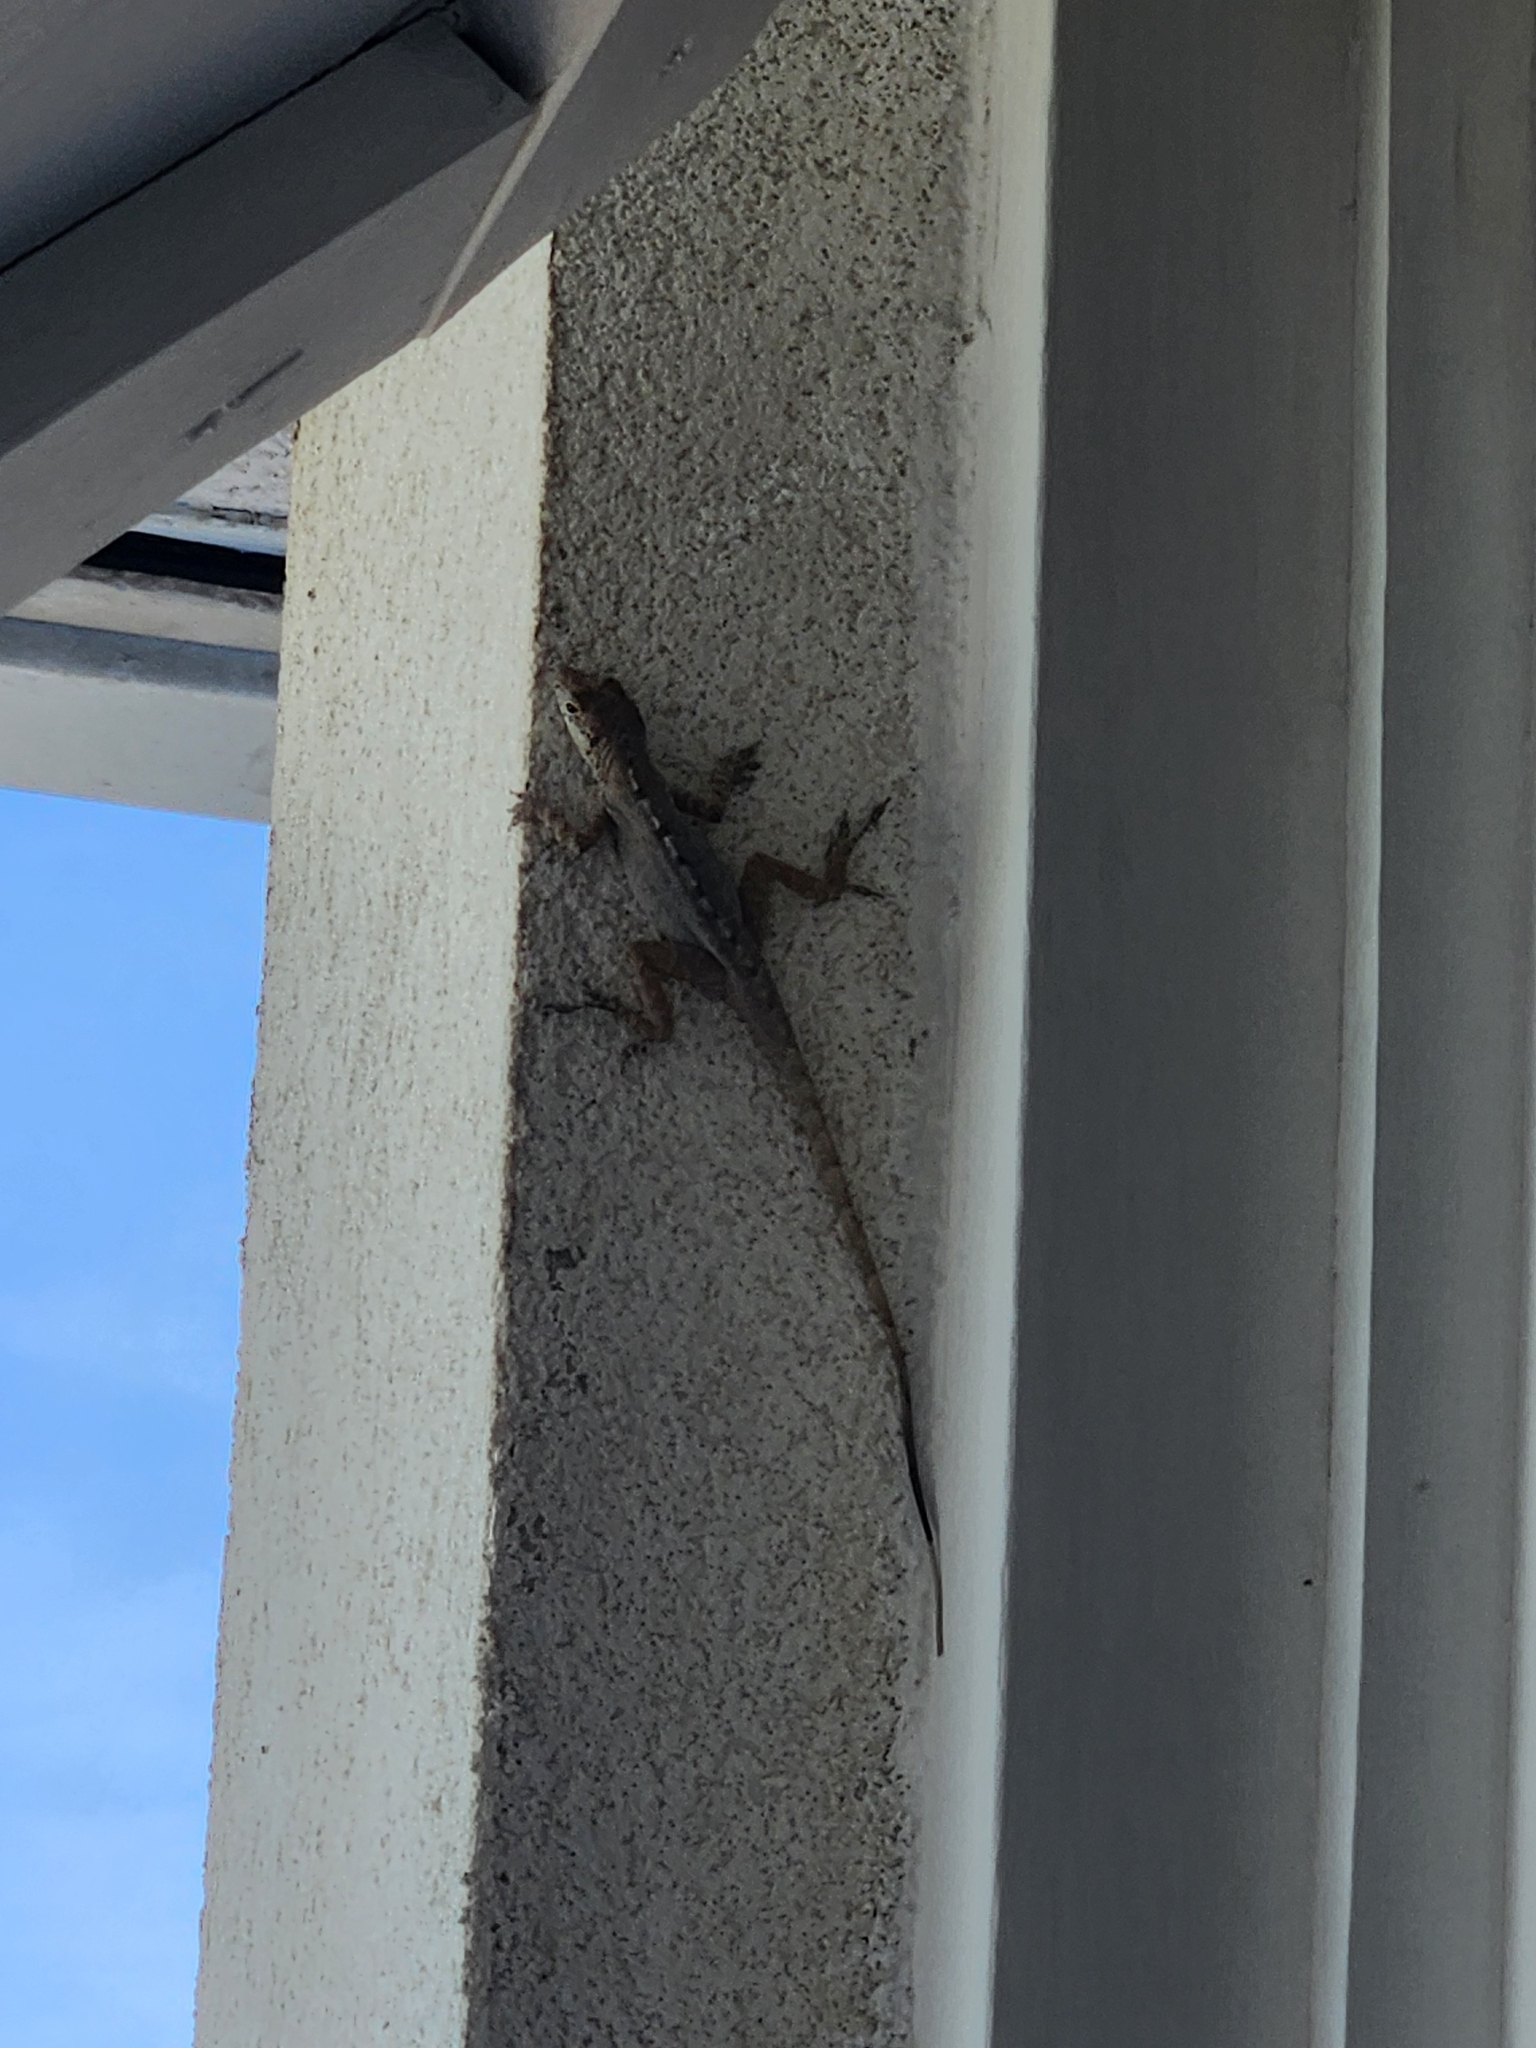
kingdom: Animalia
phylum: Chordata
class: Squamata
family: Dactyloidae
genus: Anolis
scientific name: Anolis scriptus
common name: Silver key anole
